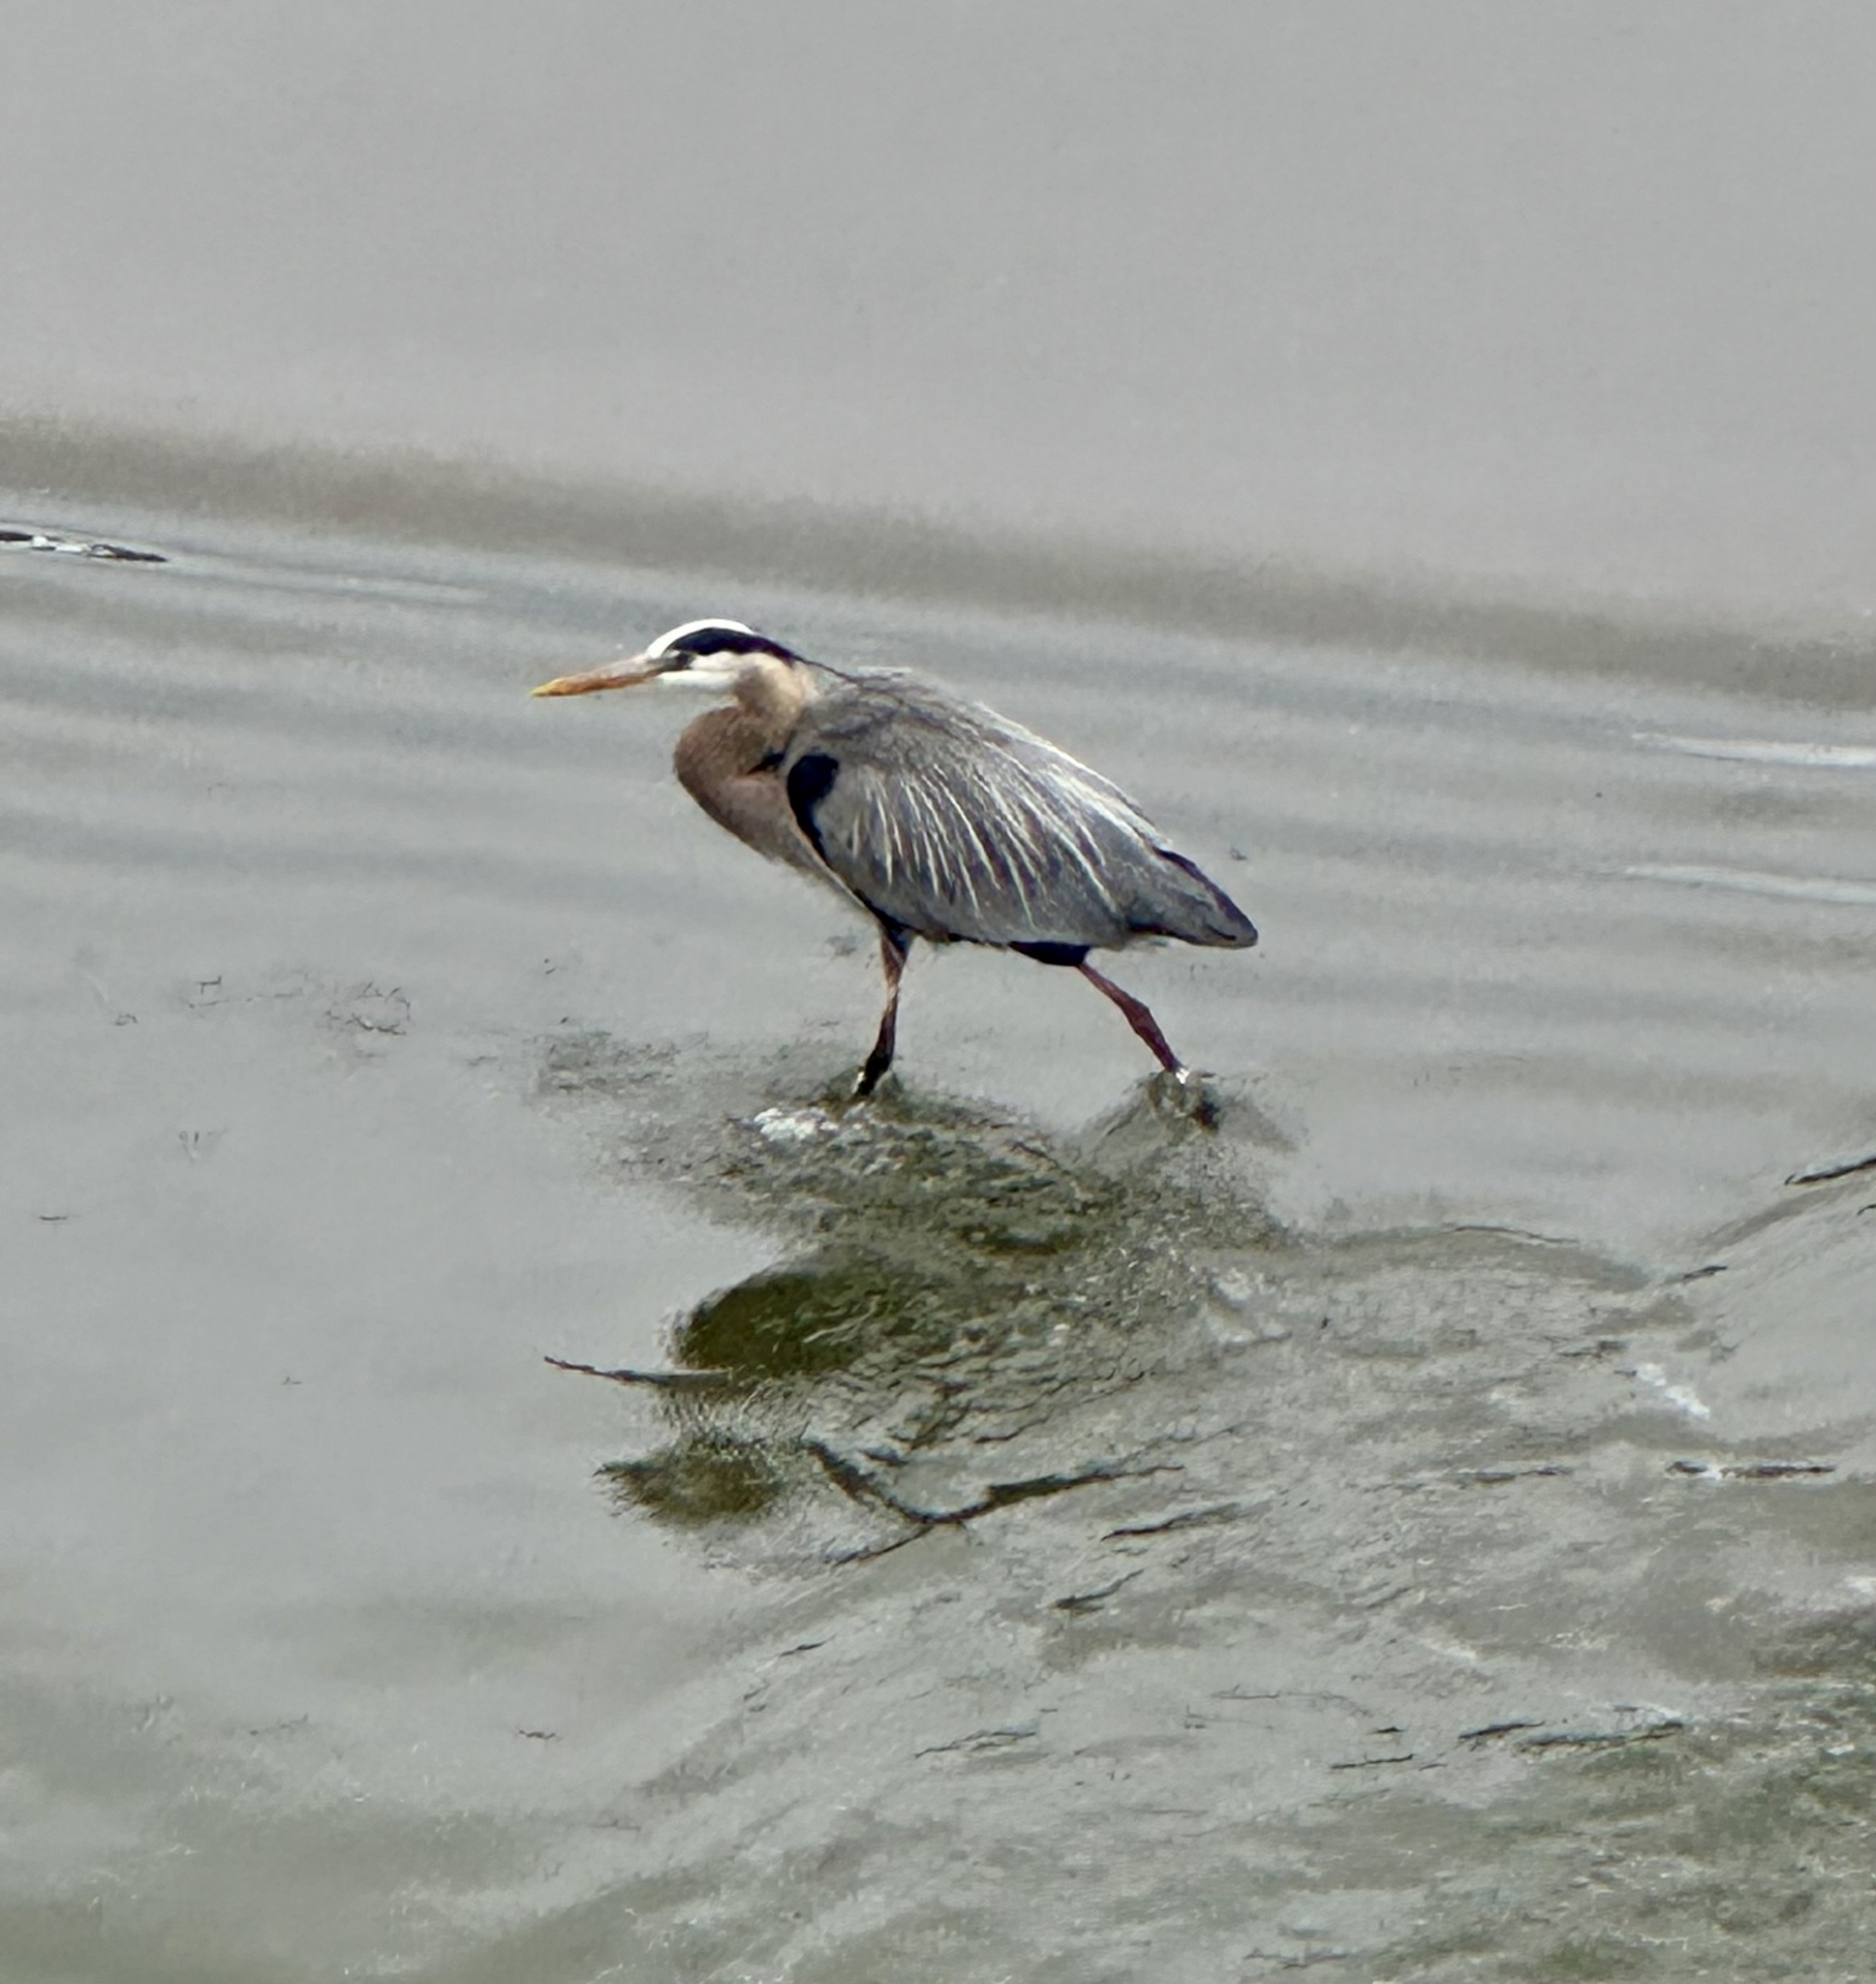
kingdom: Animalia
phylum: Chordata
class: Aves
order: Pelecaniformes
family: Ardeidae
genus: Ardea
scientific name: Ardea herodias
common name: Great blue heron
